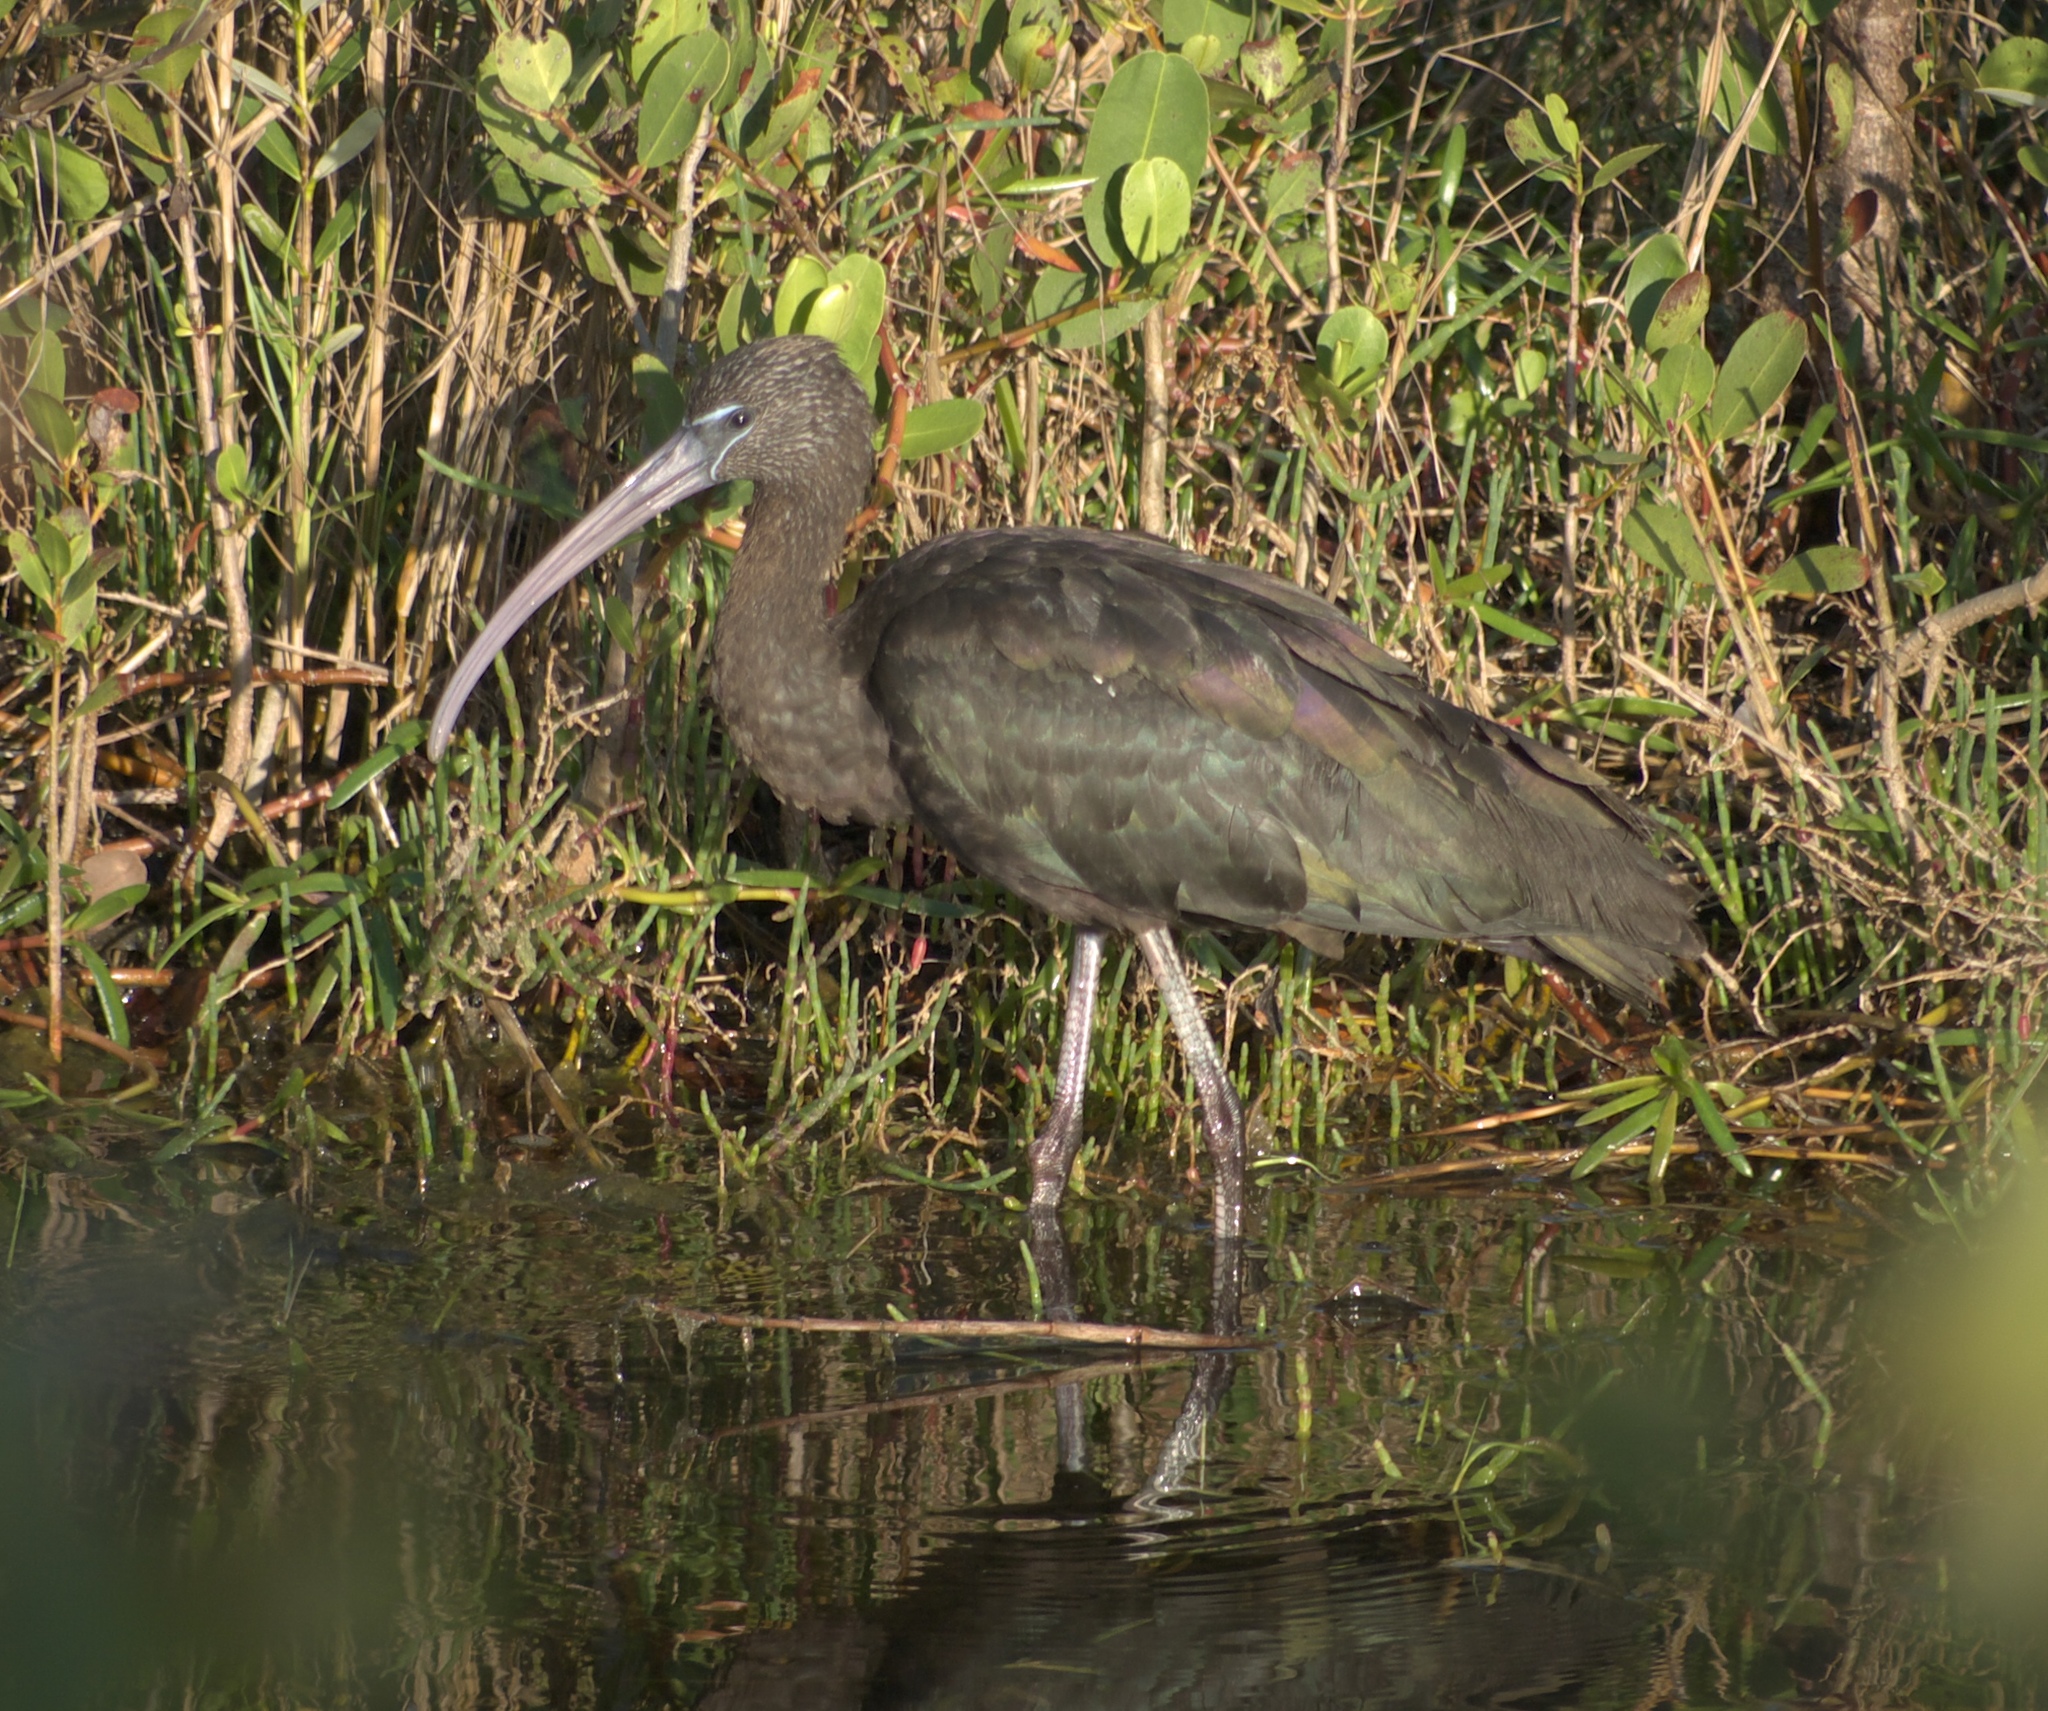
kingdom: Animalia
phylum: Chordata
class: Aves
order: Pelecaniformes
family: Threskiornithidae
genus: Plegadis
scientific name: Plegadis falcinellus
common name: Glossy ibis
